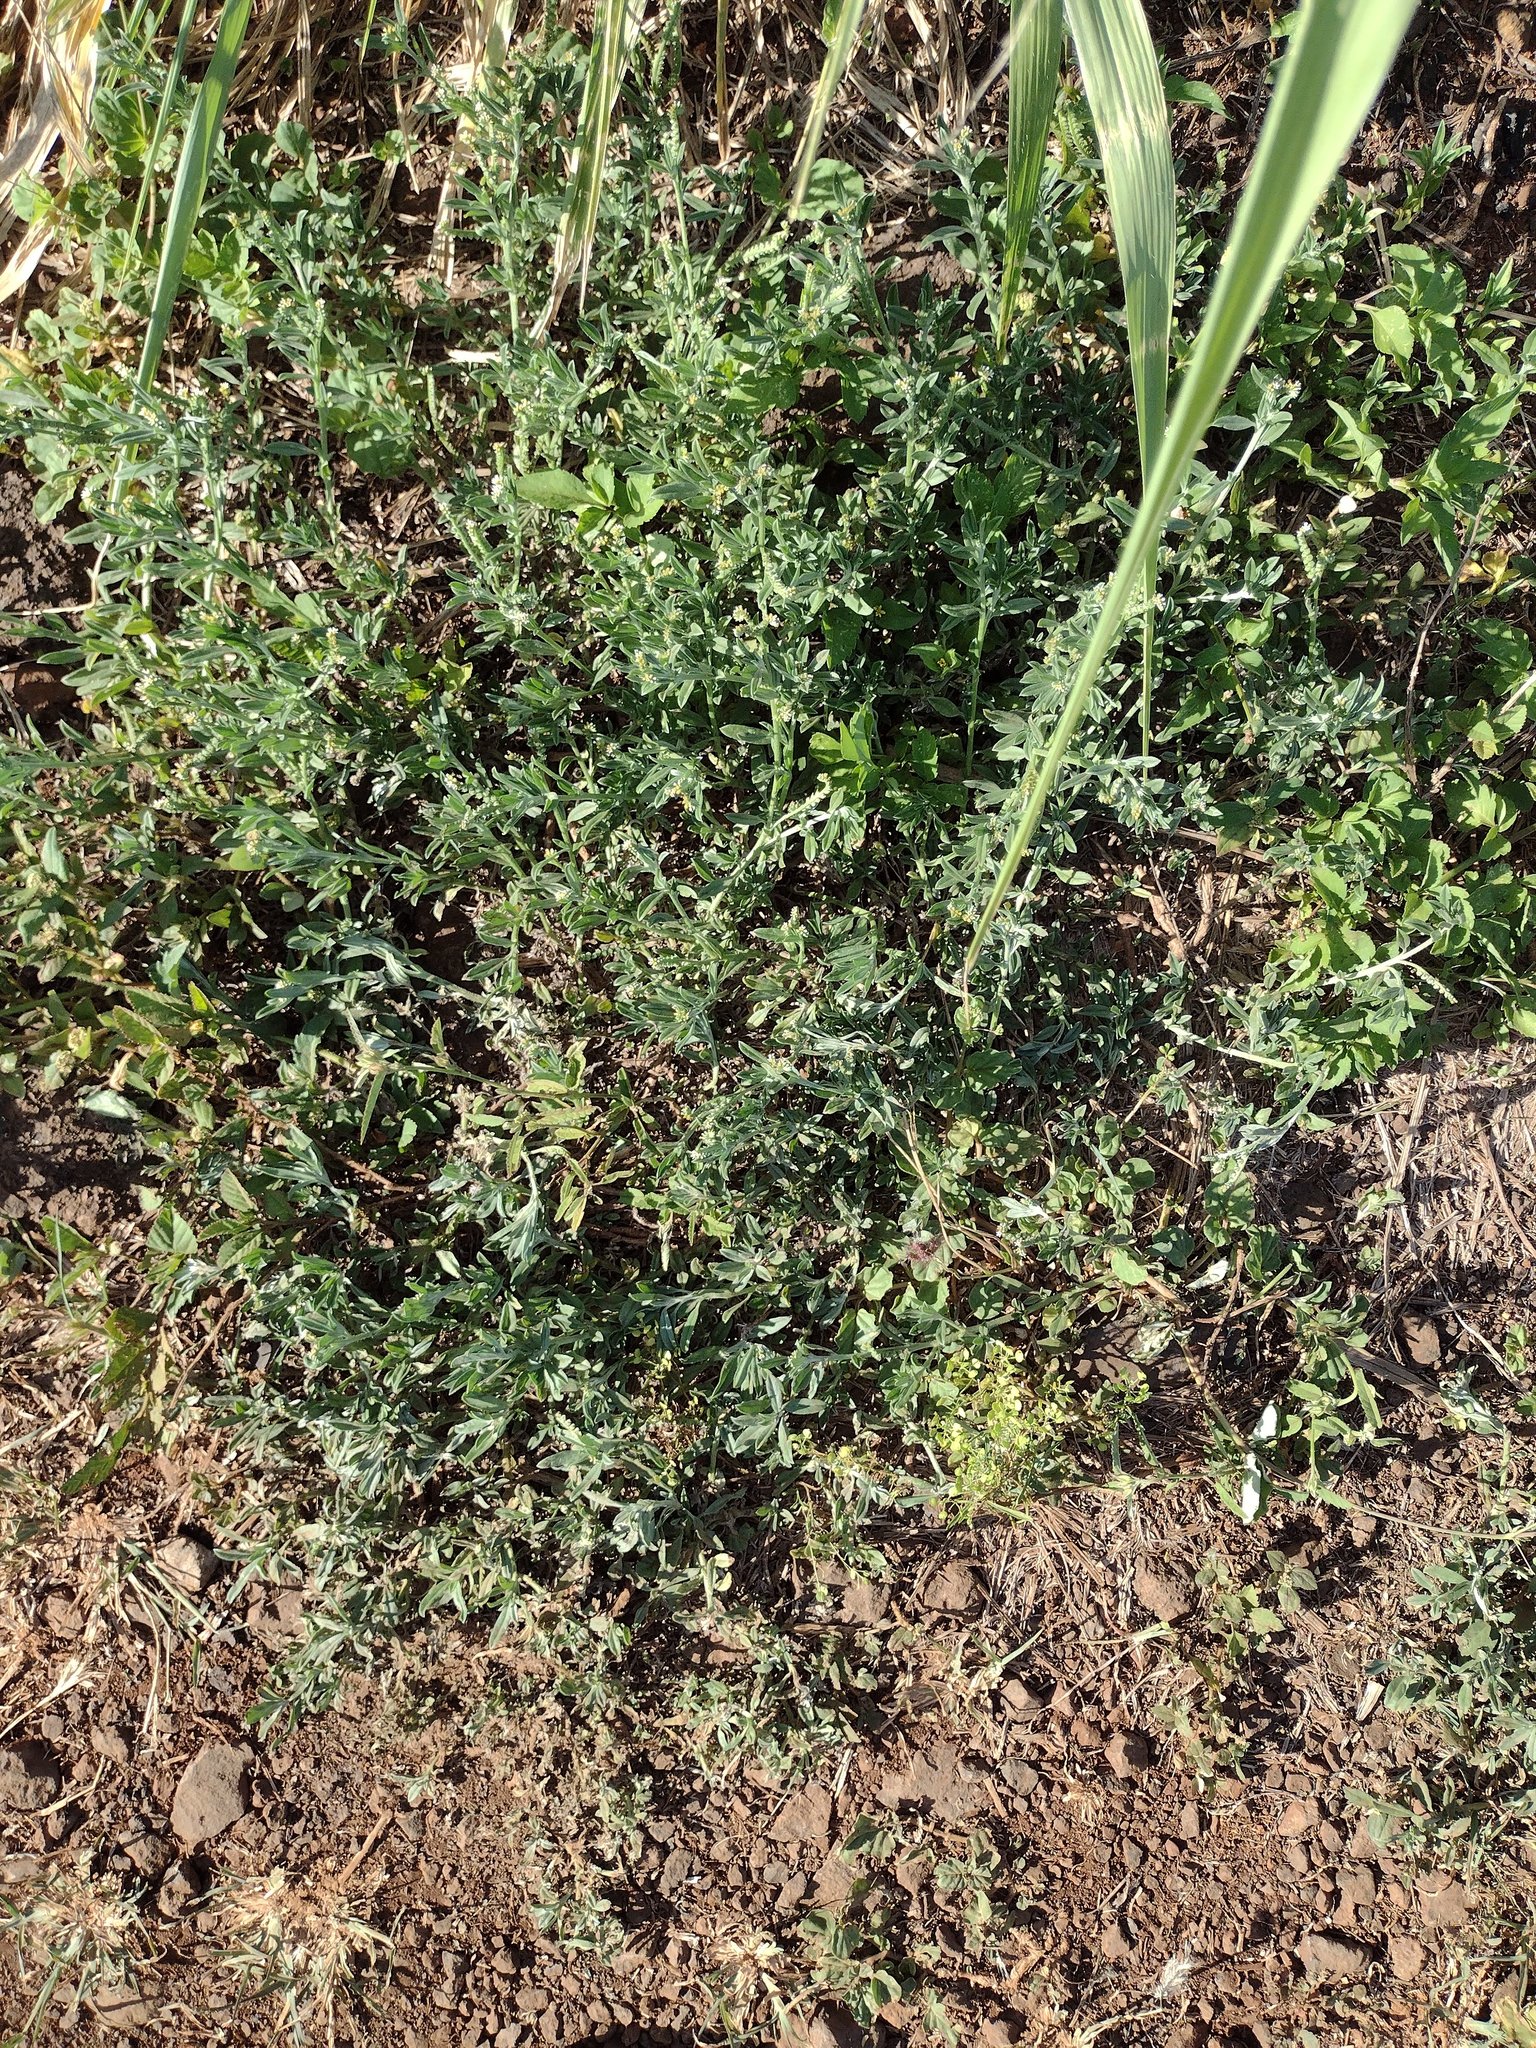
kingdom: Plantae
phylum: Tracheophyta
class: Magnoliopsida
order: Boraginales
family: Heliotropiaceae
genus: Euploca
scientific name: Euploca procumbens
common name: Fourspike heliotrope
